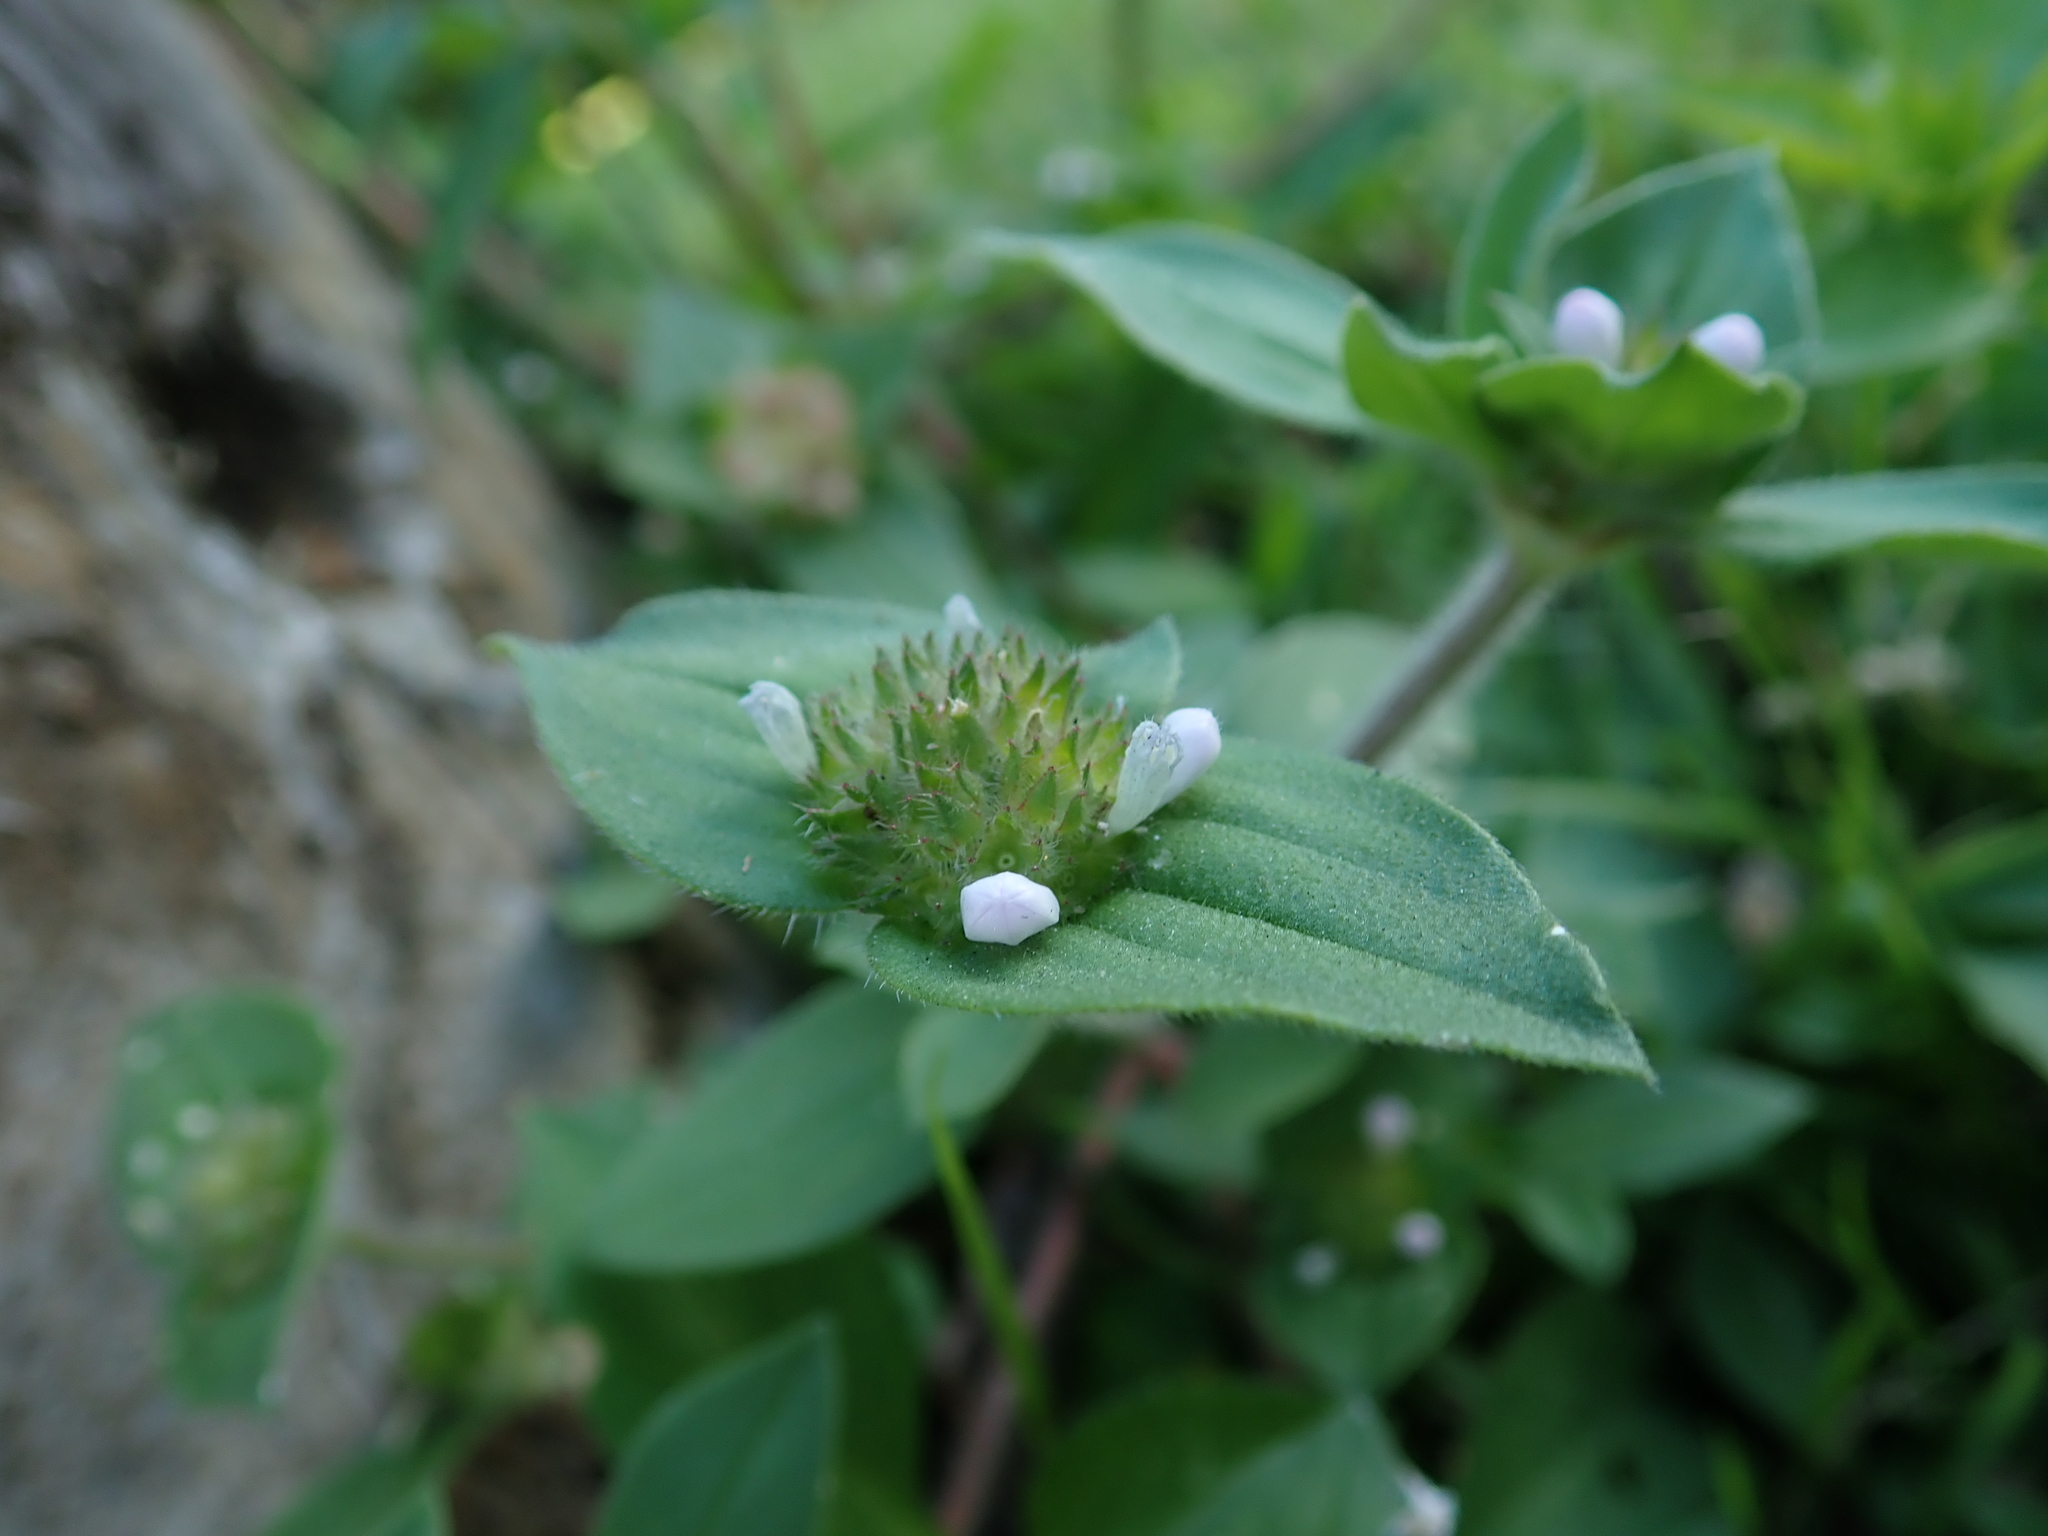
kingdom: Plantae
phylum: Tracheophyta
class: Magnoliopsida
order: Gentianales
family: Rubiaceae
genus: Richardia
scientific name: Richardia scabra
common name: Rough mexican clover
